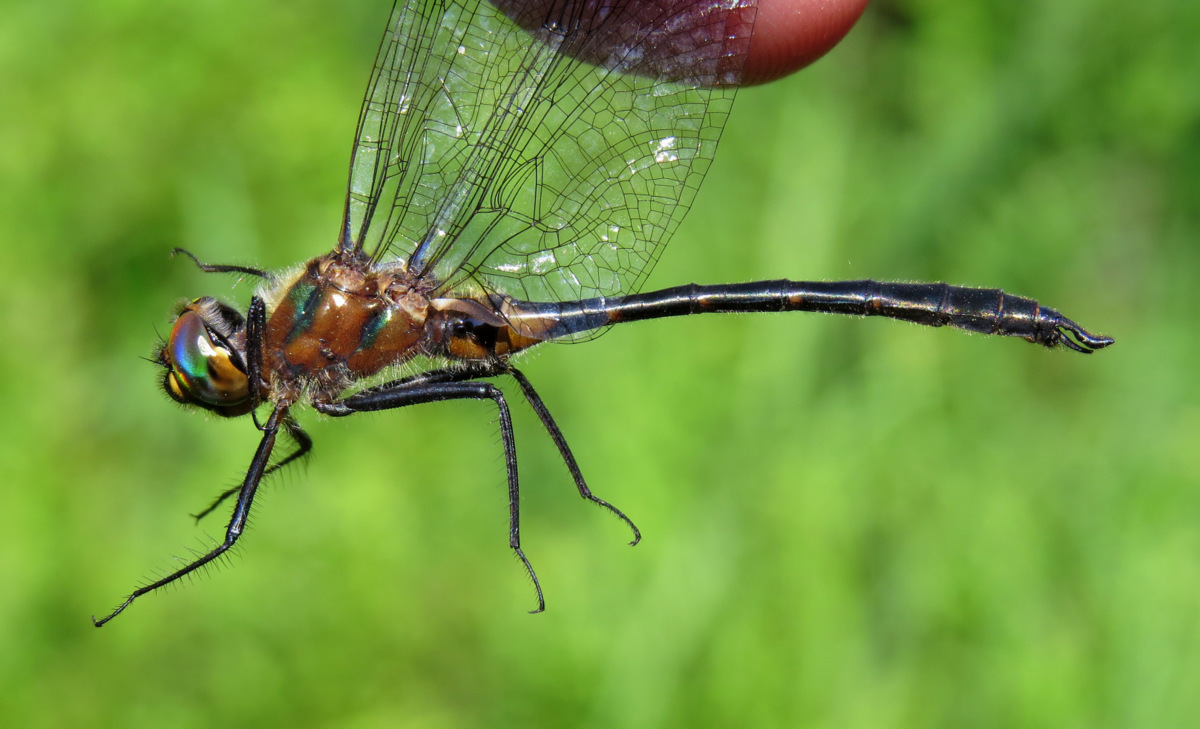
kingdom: Animalia
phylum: Arthropoda
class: Insecta
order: Odonata
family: Corduliidae
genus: Dorocordulia
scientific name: Dorocordulia lepida
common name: Petite emerald
